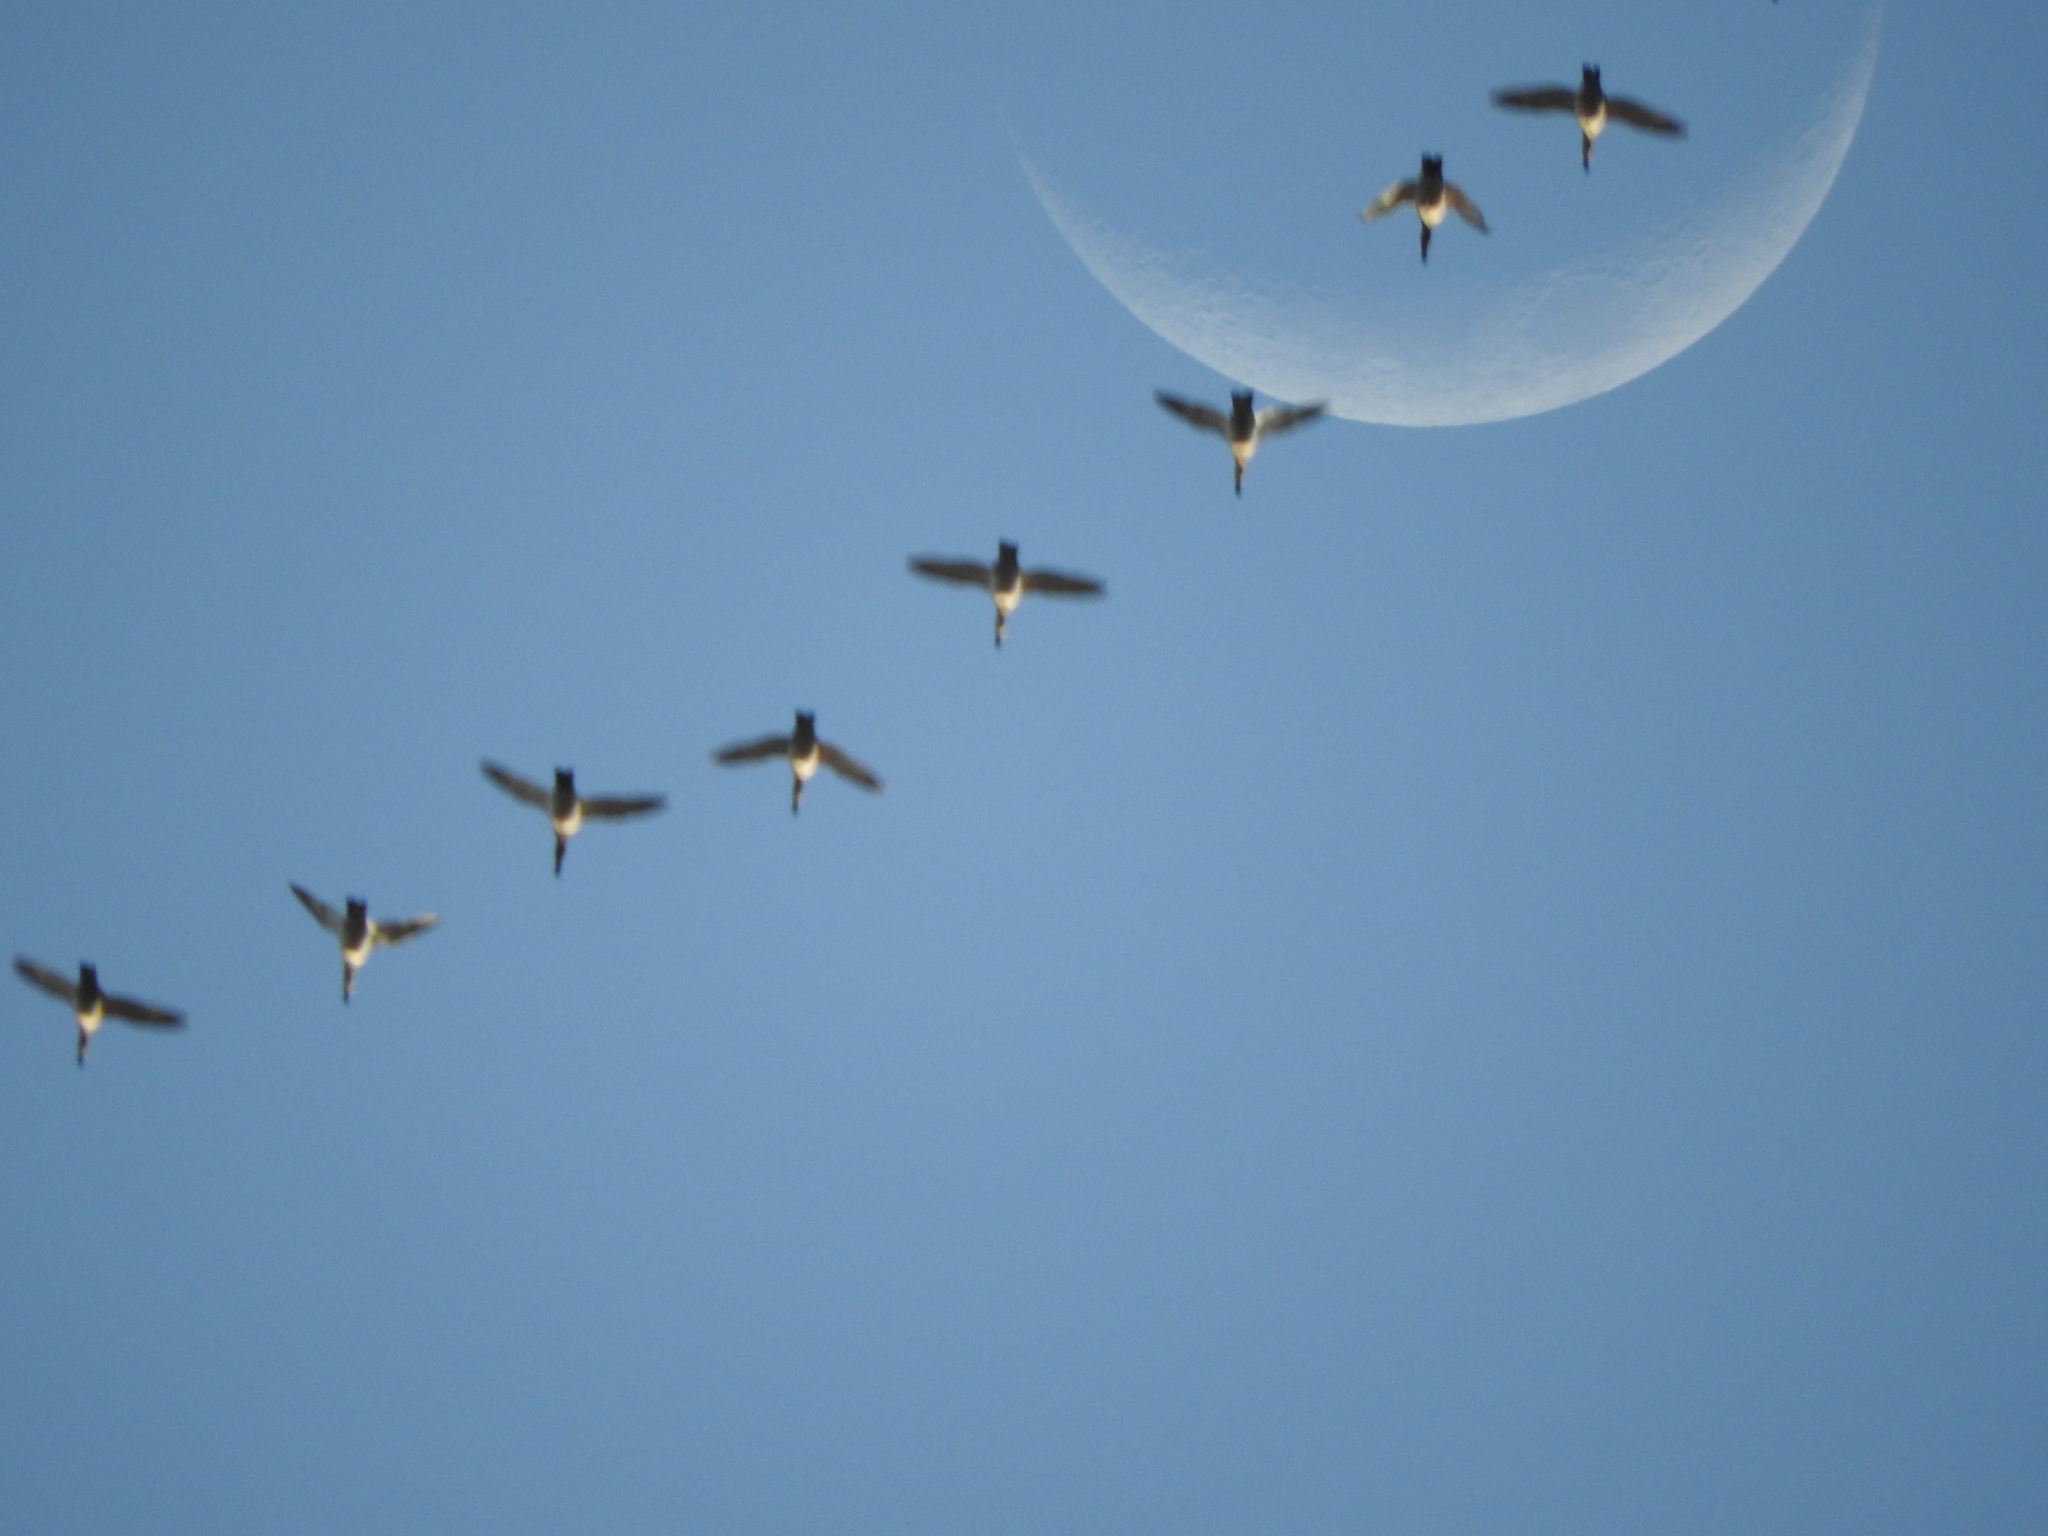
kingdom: Animalia
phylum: Chordata
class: Aves
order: Anseriformes
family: Anatidae
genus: Aythya
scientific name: Aythya valisineria
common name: Canvasback
